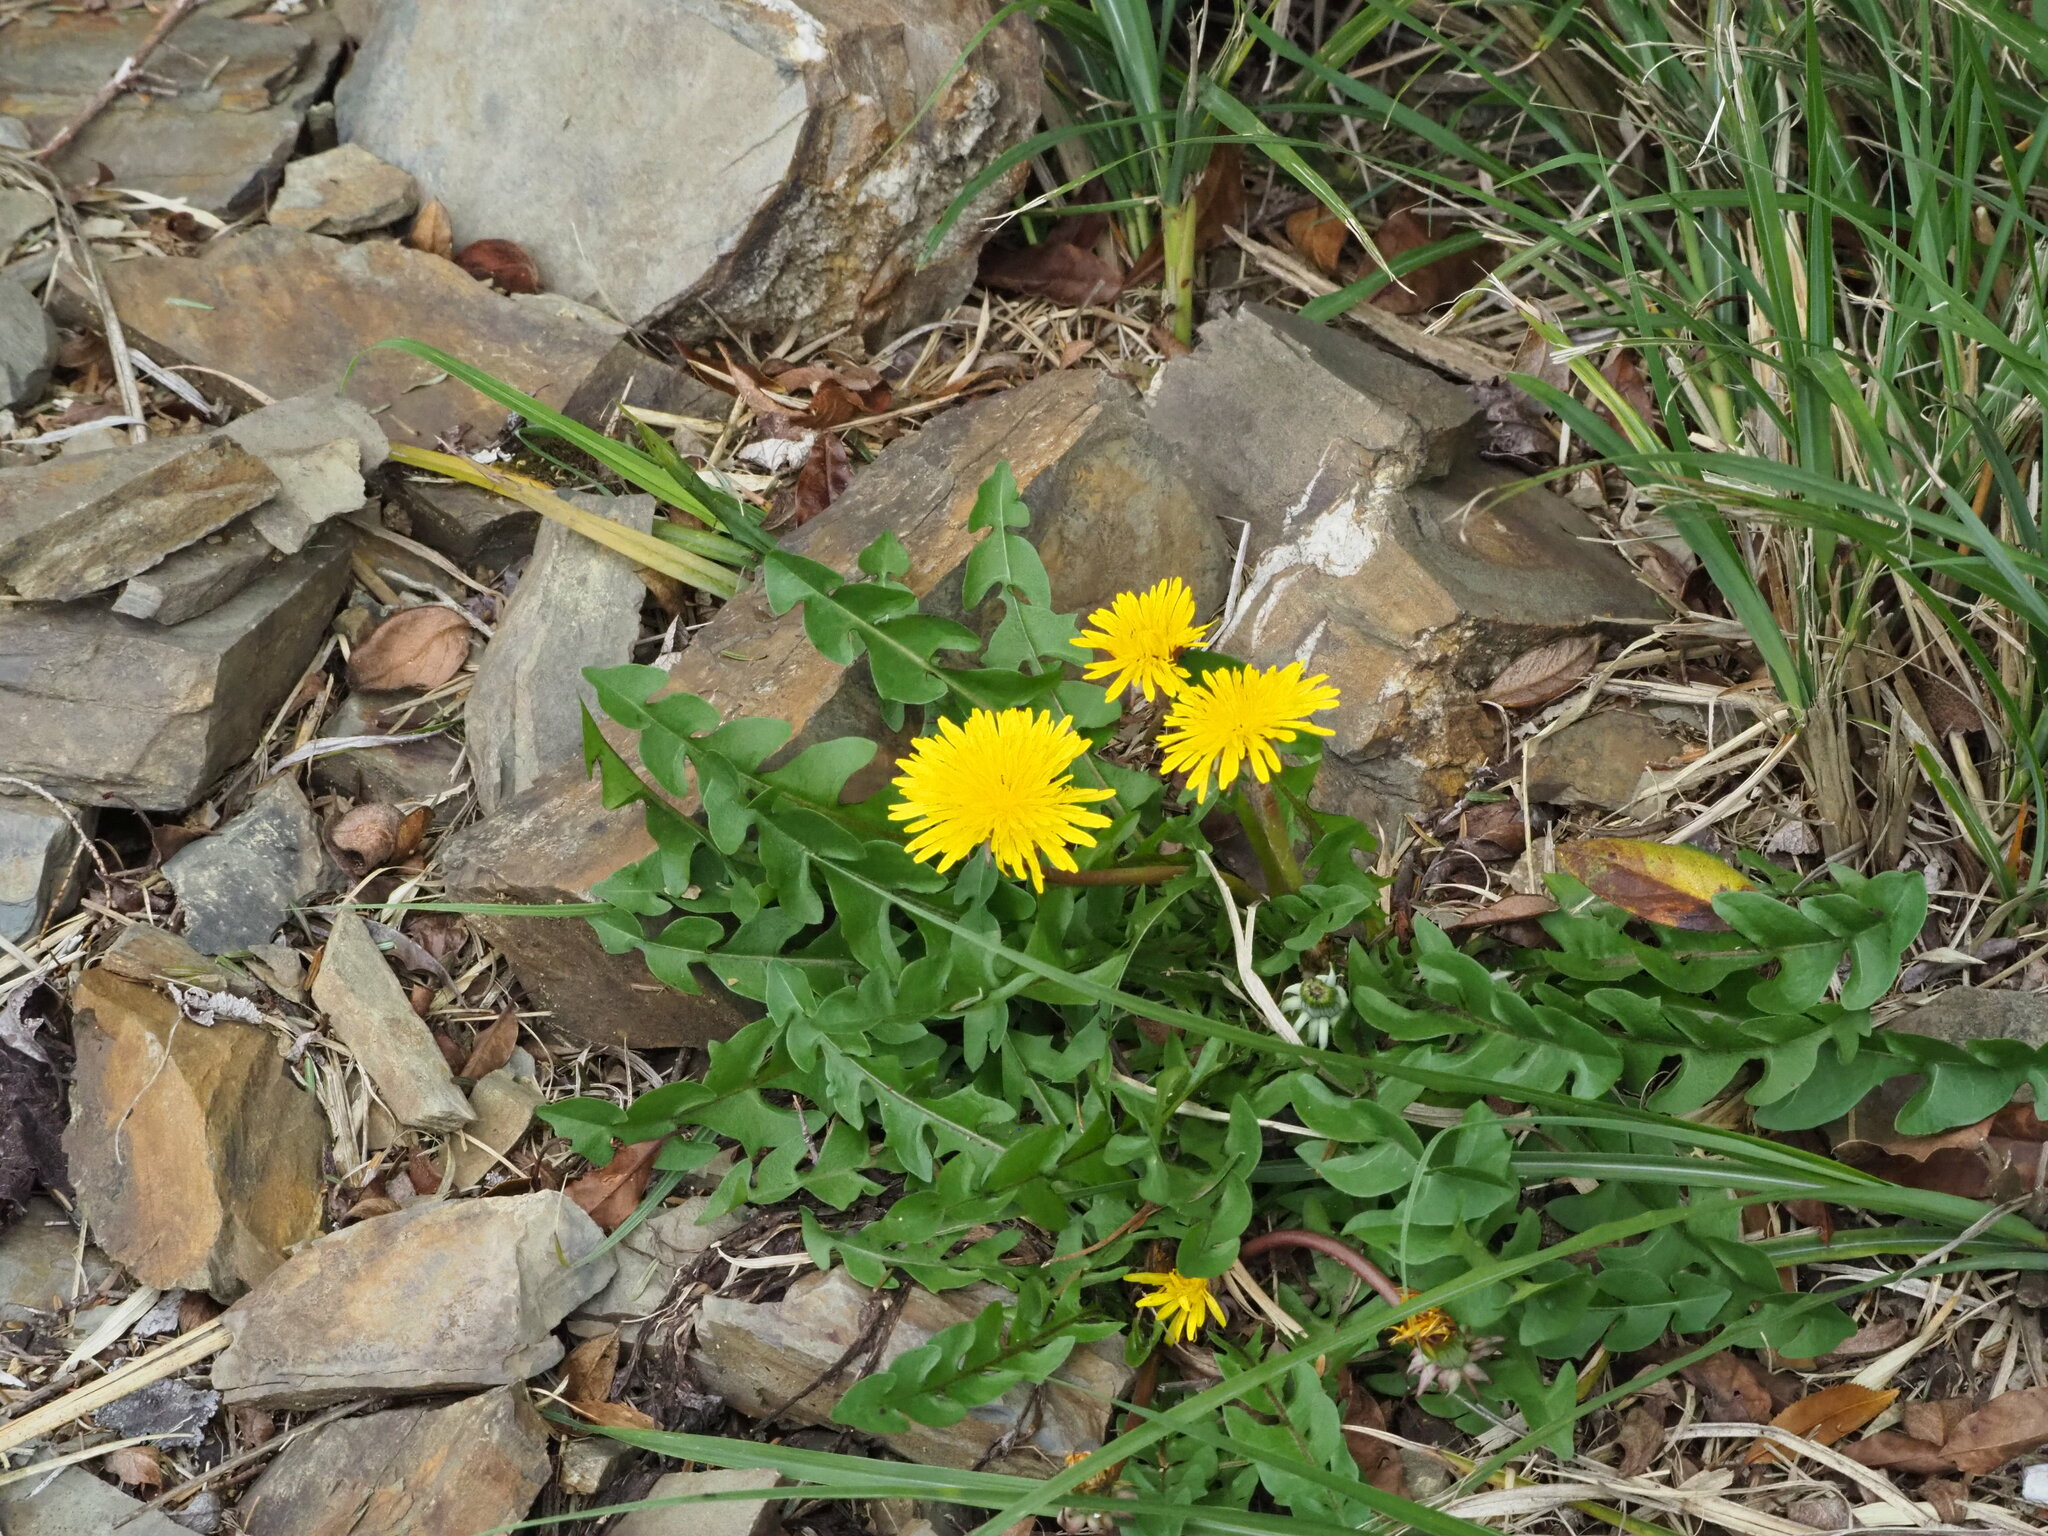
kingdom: Plantae
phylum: Tracheophyta
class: Magnoliopsida
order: Asterales
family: Asteraceae
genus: Taraxacum
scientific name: Taraxacum officinale
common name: Common dandelion
